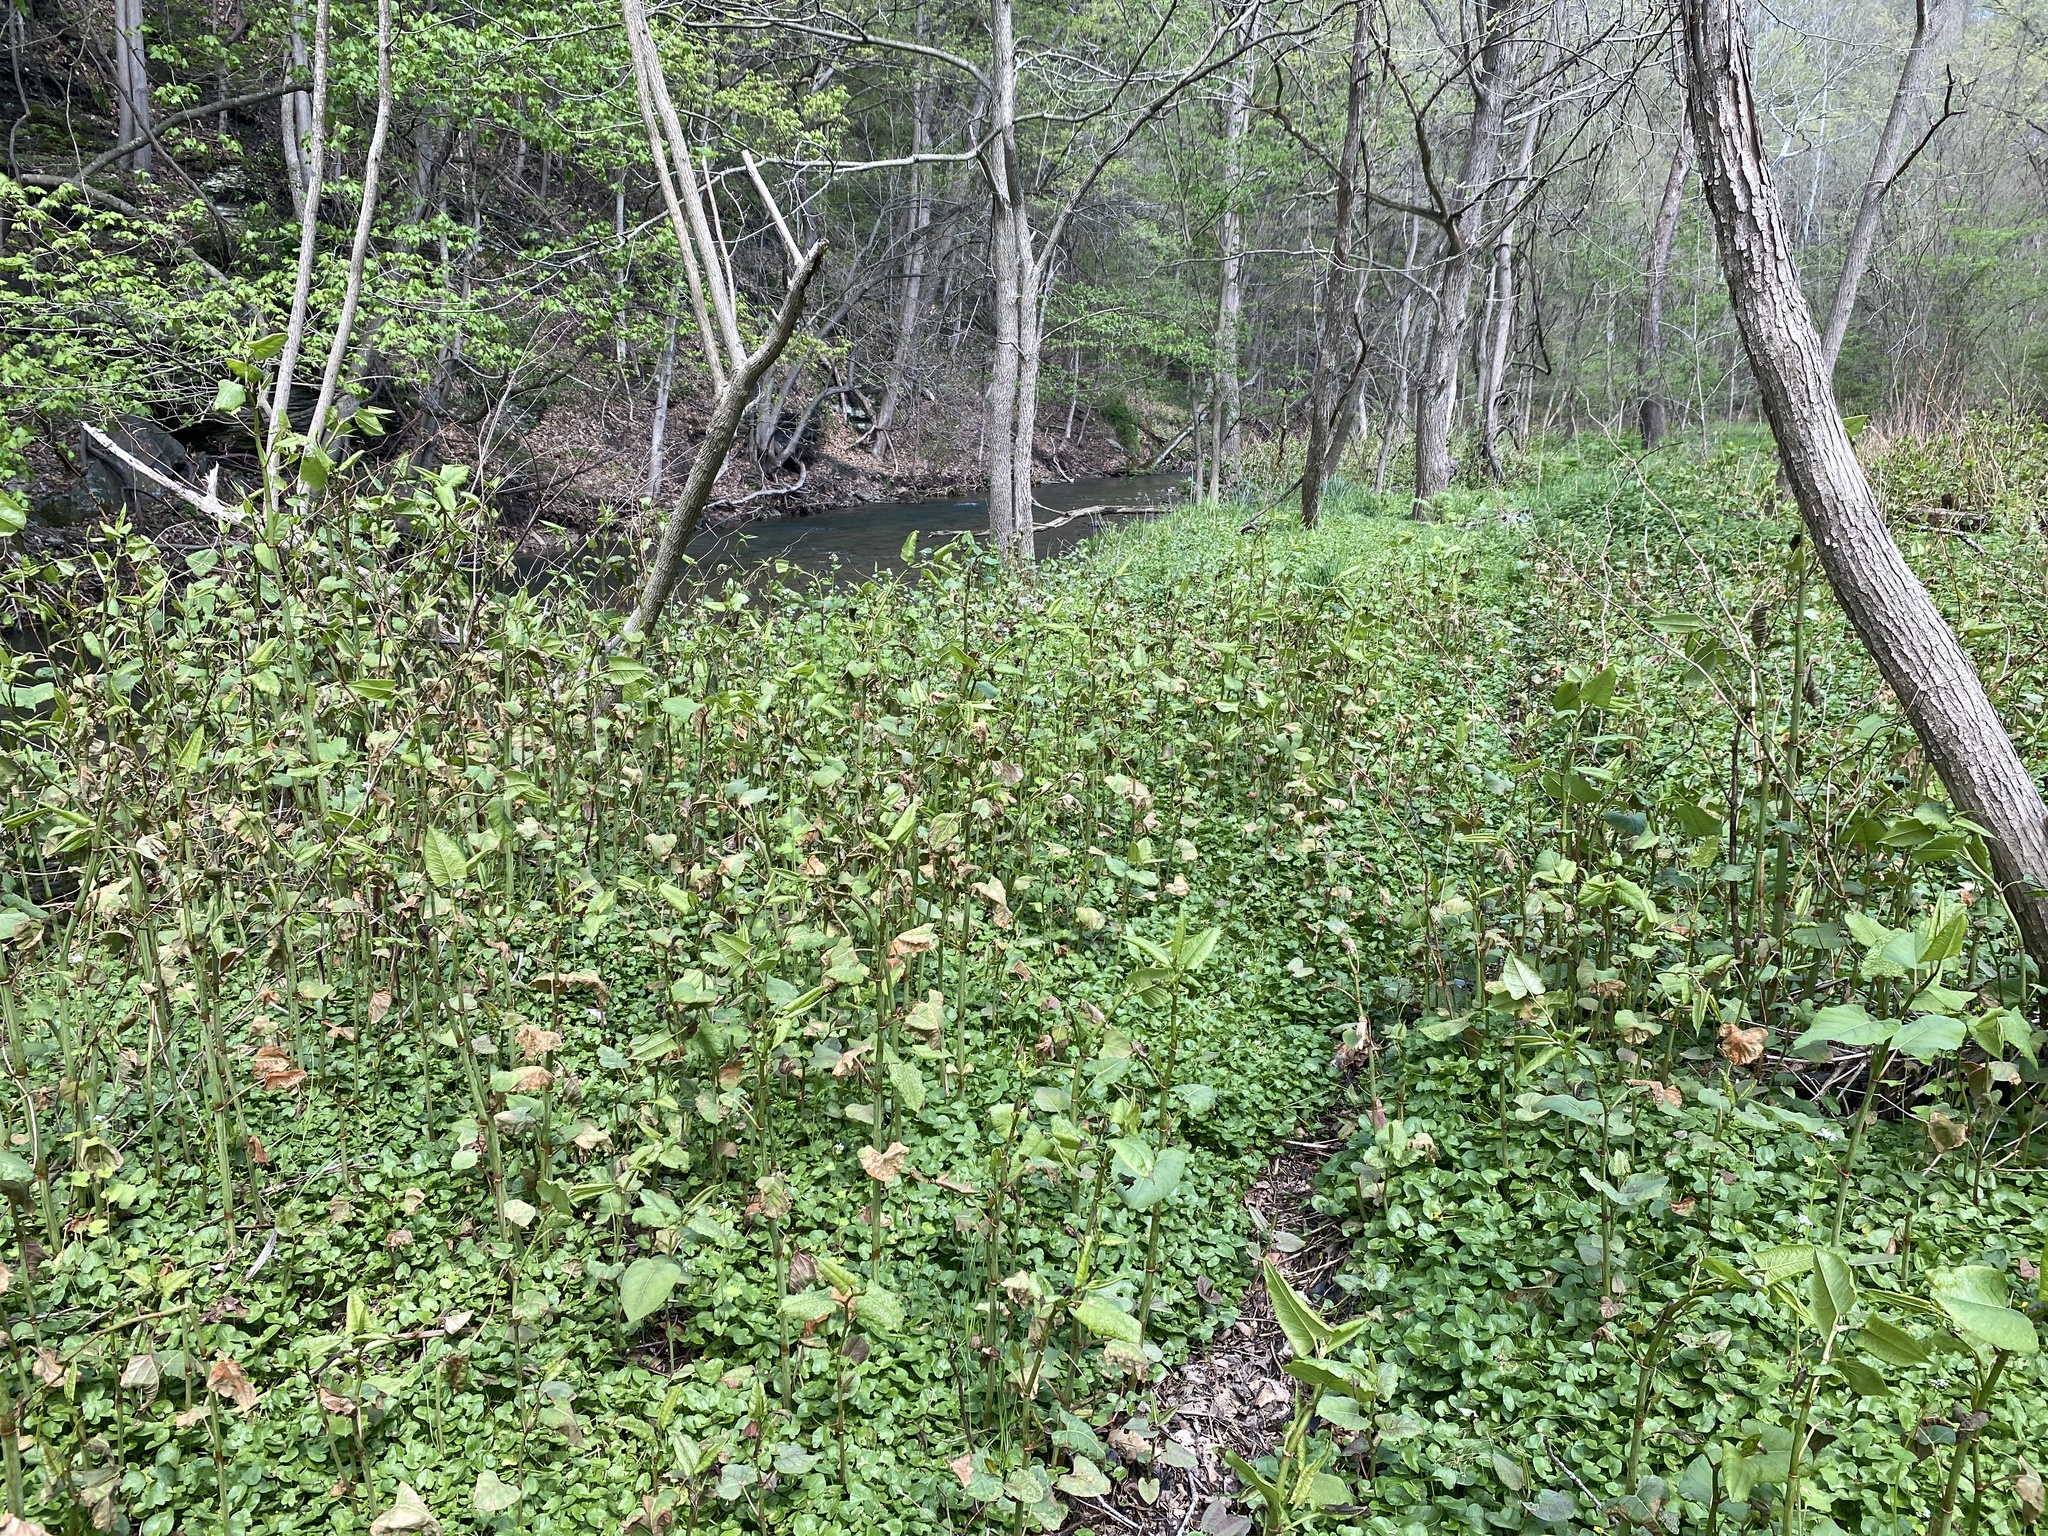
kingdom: Plantae
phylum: Tracheophyta
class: Magnoliopsida
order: Ranunculales
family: Ranunculaceae
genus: Ficaria
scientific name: Ficaria verna
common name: Lesser celandine
